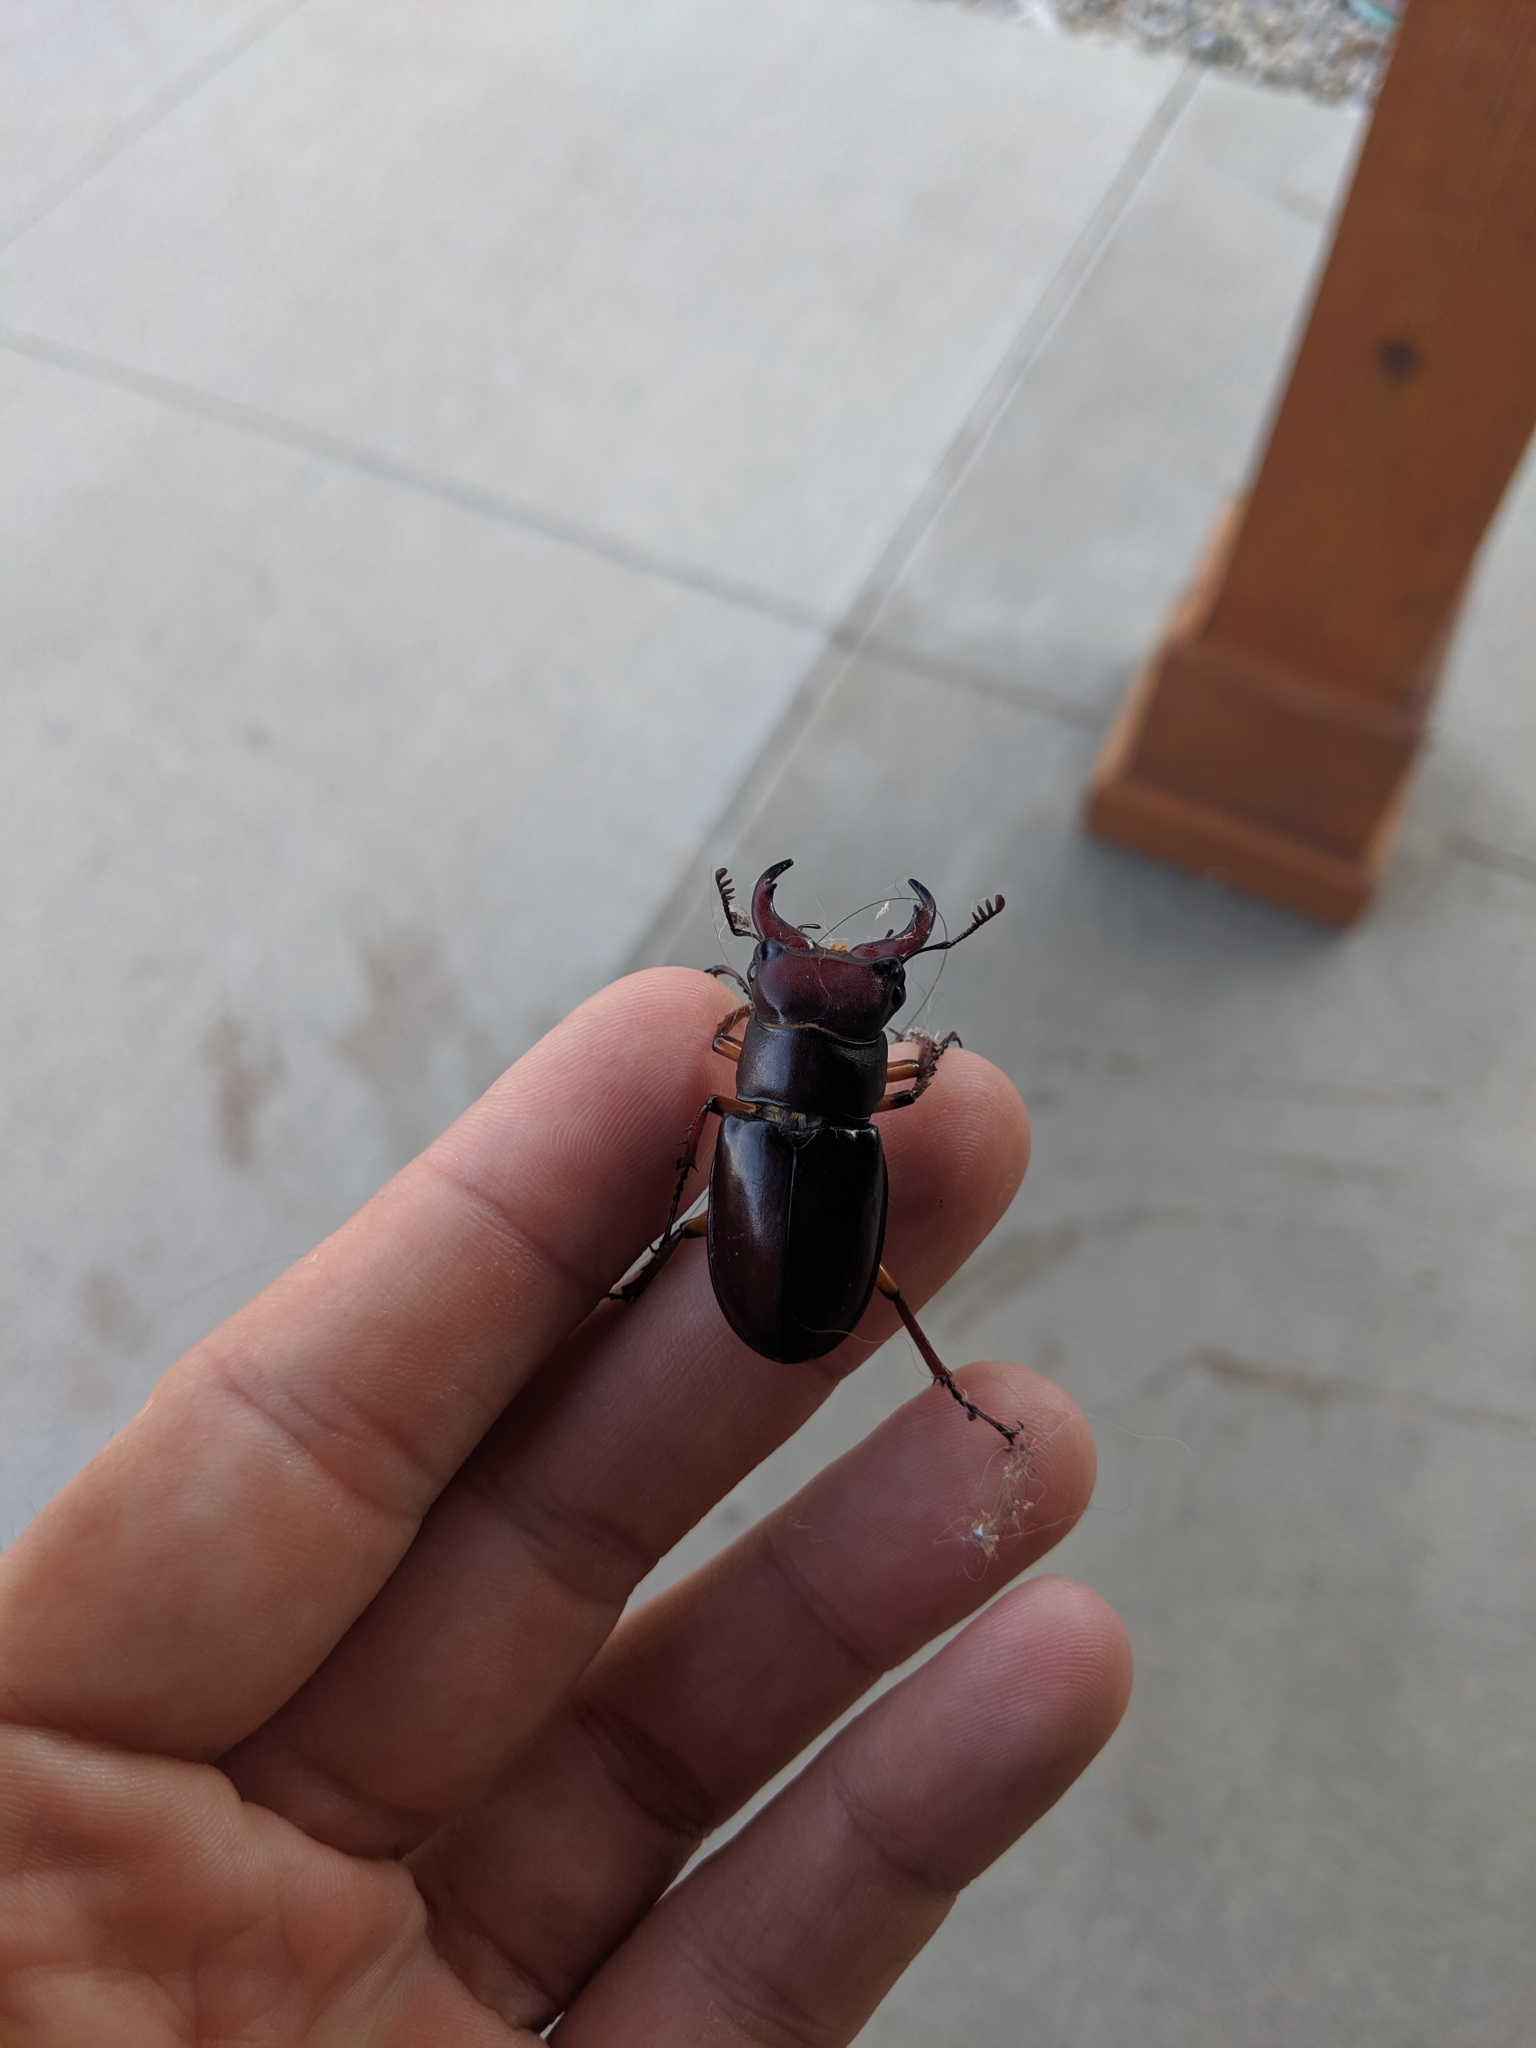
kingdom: Animalia
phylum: Arthropoda
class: Insecta
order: Coleoptera
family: Lucanidae
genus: Lucanus
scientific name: Lucanus capreolus
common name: Stag beetle
